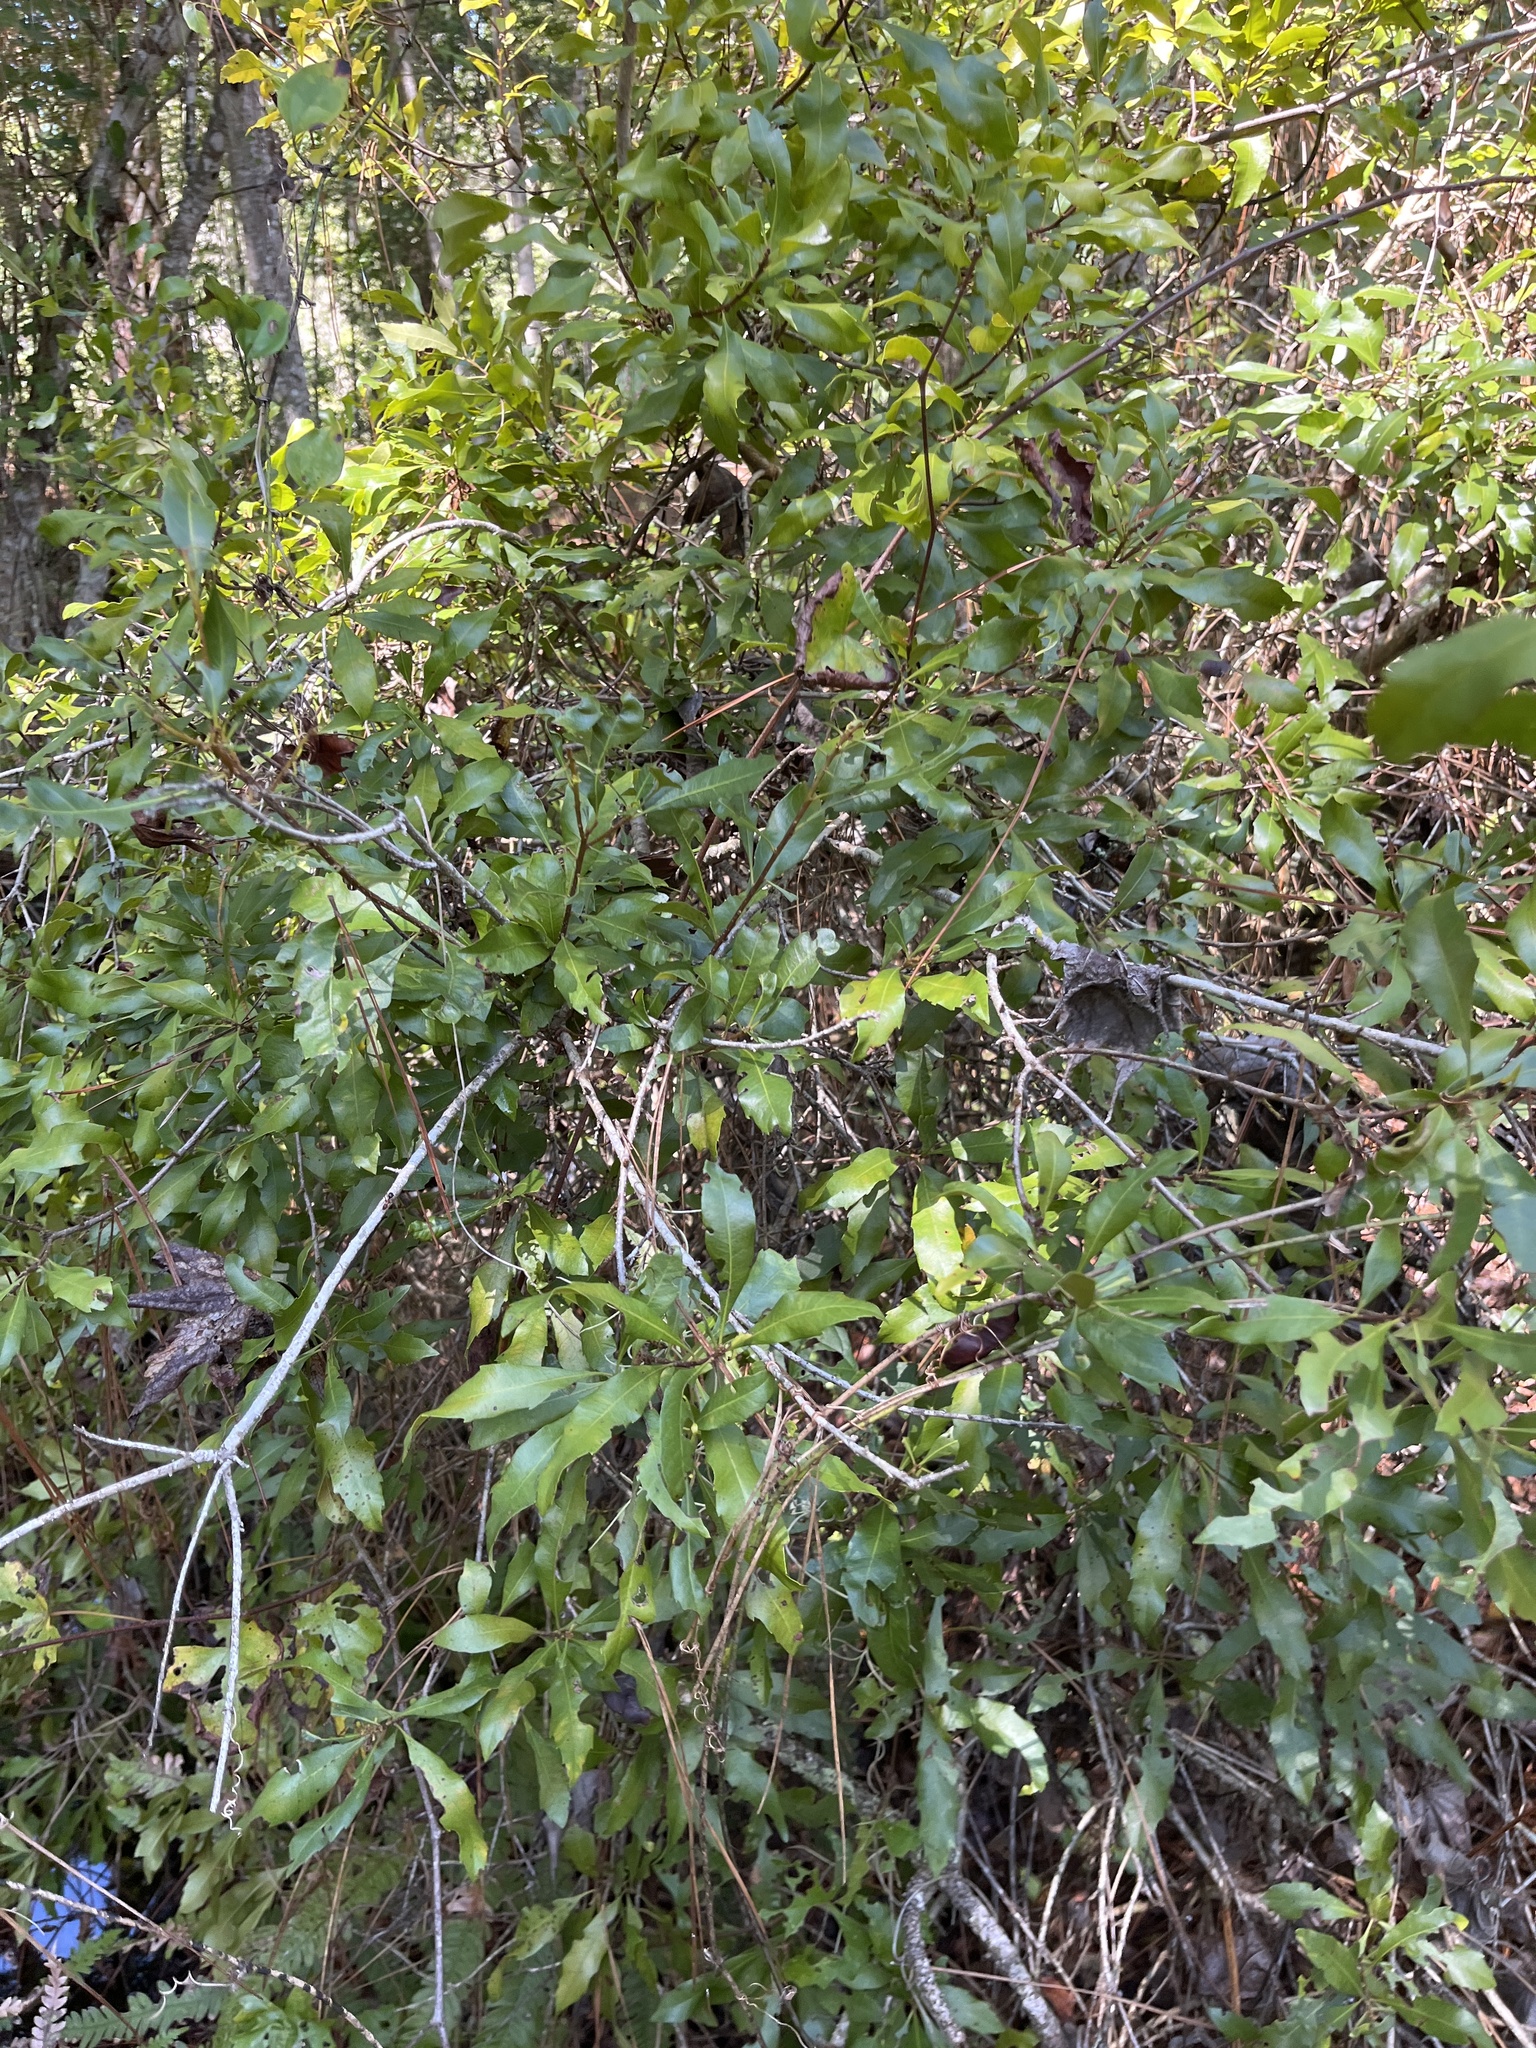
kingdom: Plantae
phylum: Tracheophyta
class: Magnoliopsida
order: Fagales
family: Myricaceae
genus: Morella
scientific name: Morella cerifera
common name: Wax myrtle
